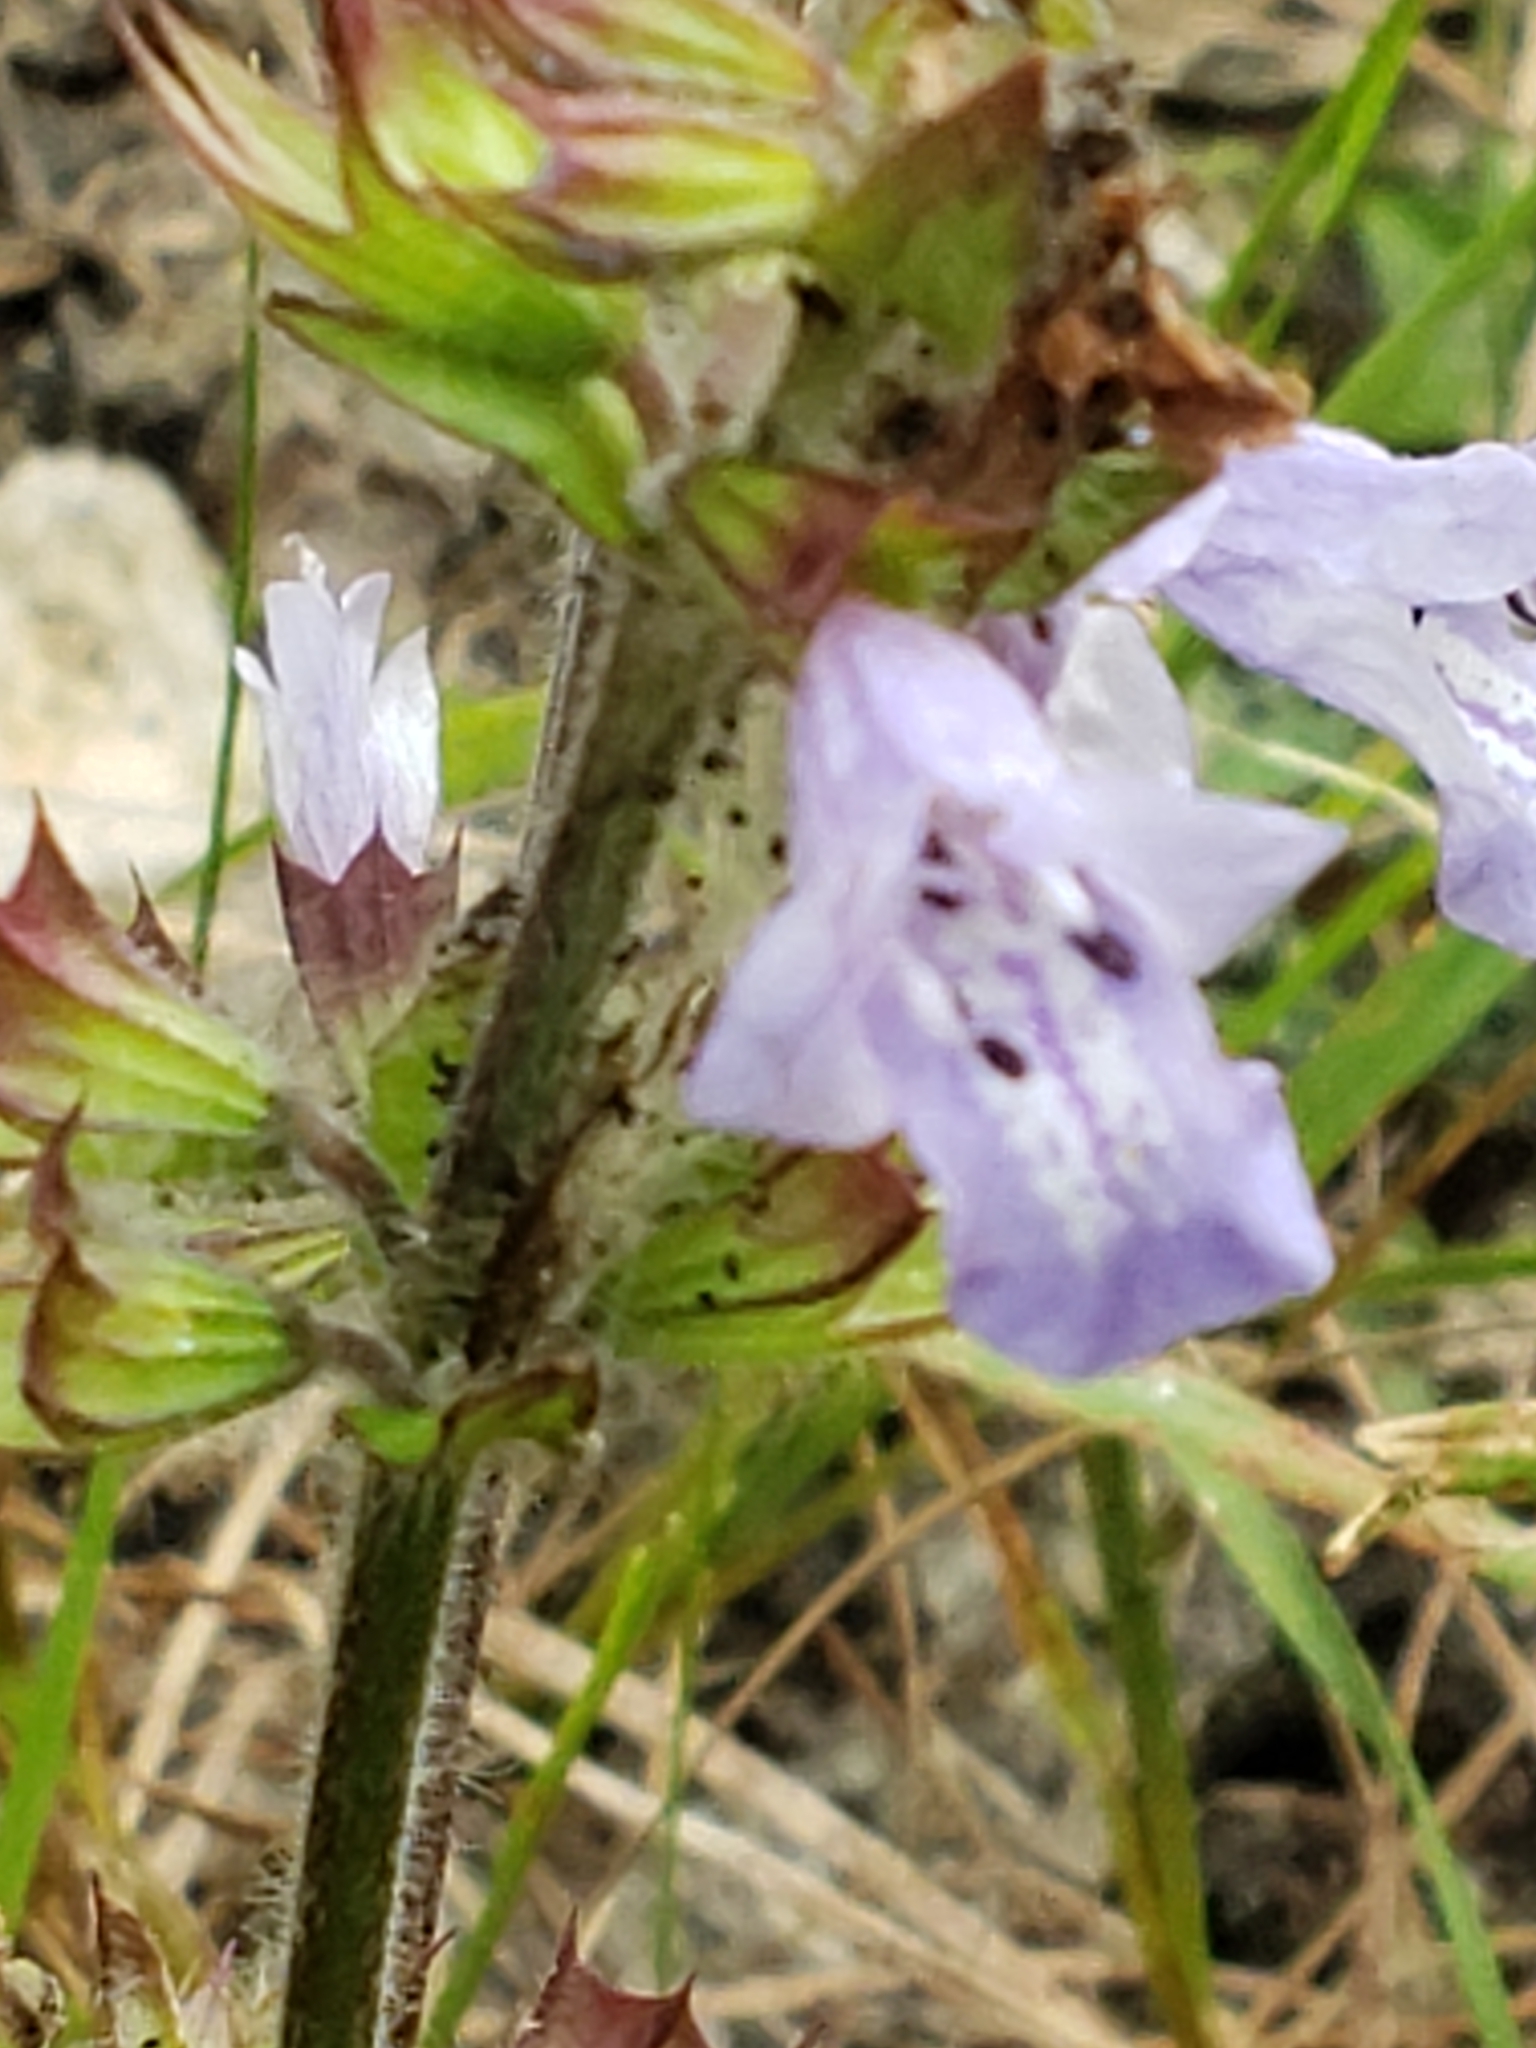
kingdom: Plantae
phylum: Tracheophyta
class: Magnoliopsida
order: Lamiales
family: Lamiaceae
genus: Salvia
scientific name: Salvia lyrata
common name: Cancerweed
